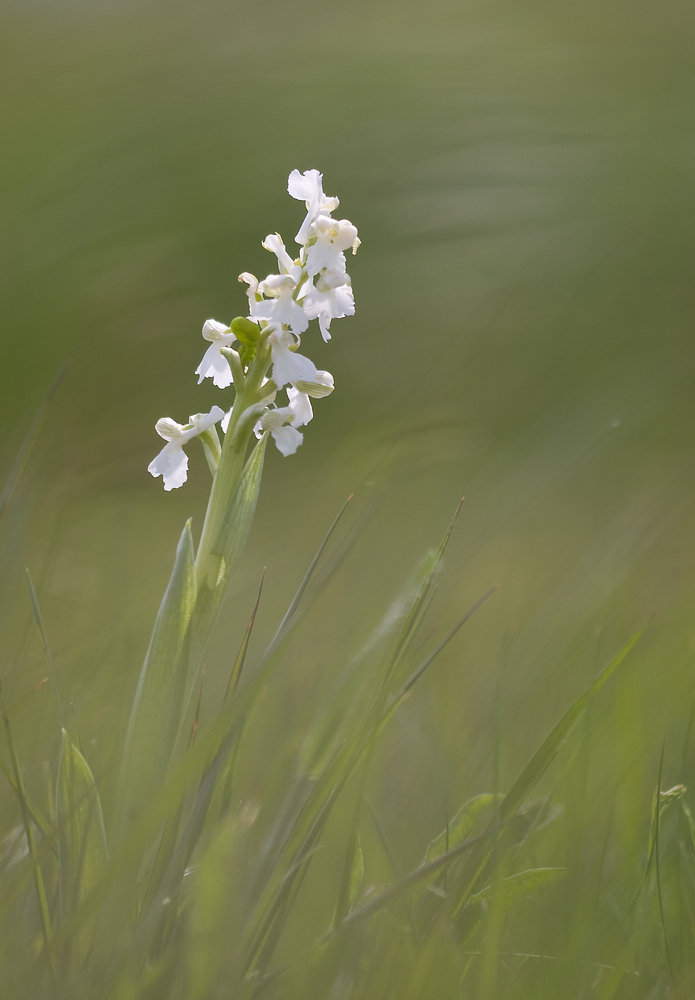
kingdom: Plantae
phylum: Tracheophyta
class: Liliopsida
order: Asparagales
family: Orchidaceae
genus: Anacamptis
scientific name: Anacamptis morio
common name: Green-winged orchid
